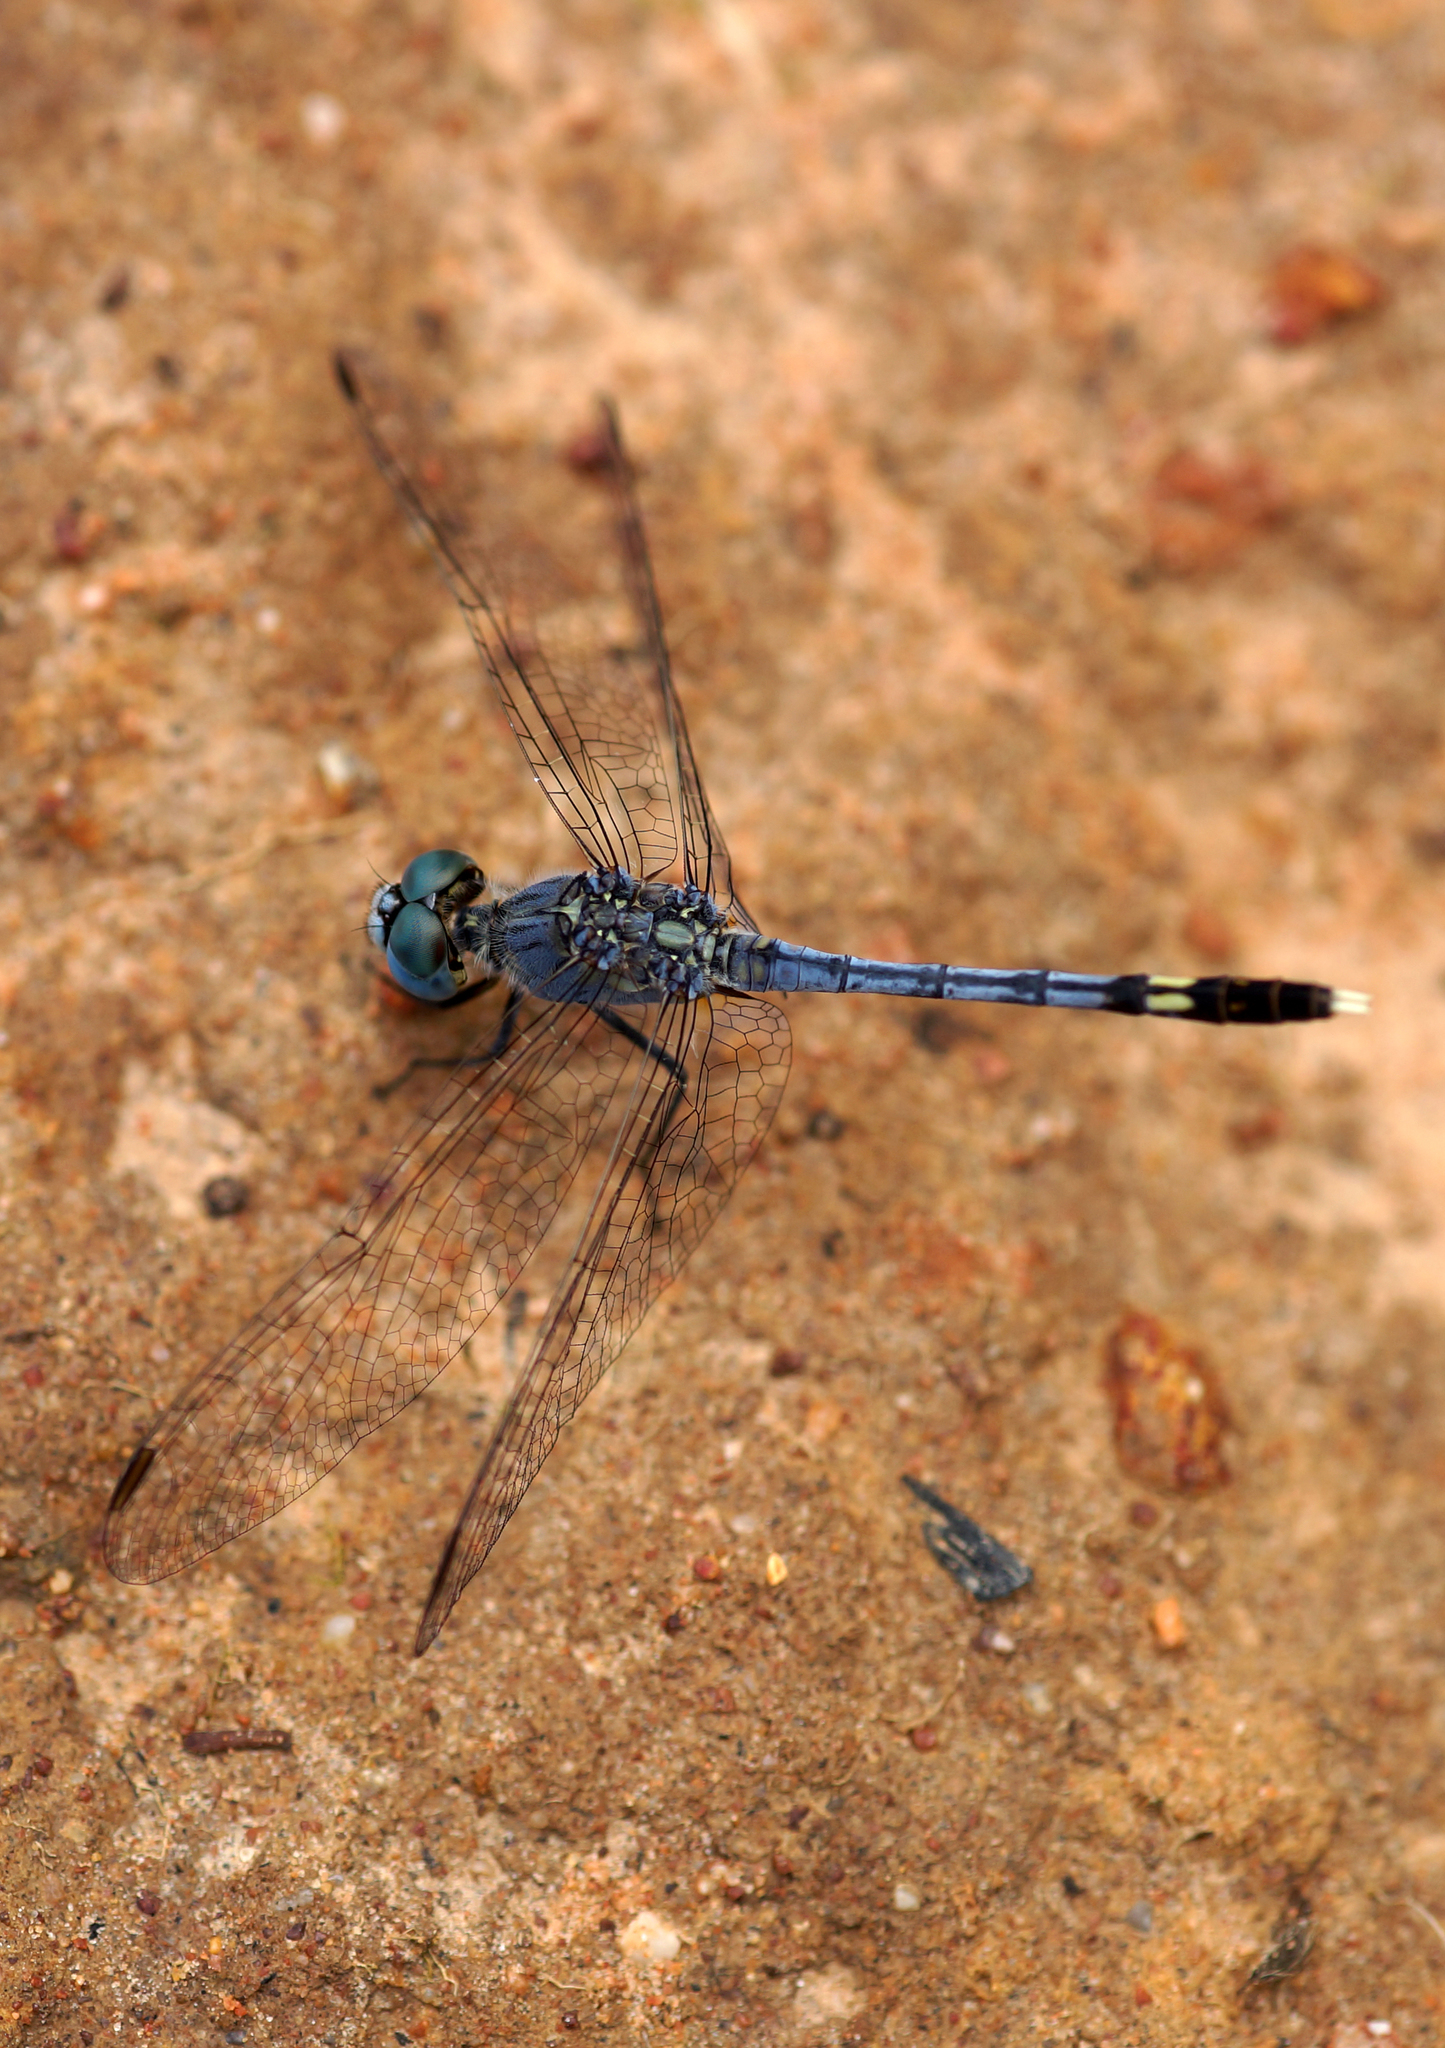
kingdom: Animalia
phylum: Arthropoda
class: Insecta
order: Odonata
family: Libellulidae
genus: Diplacodes
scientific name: Diplacodes trivialis
